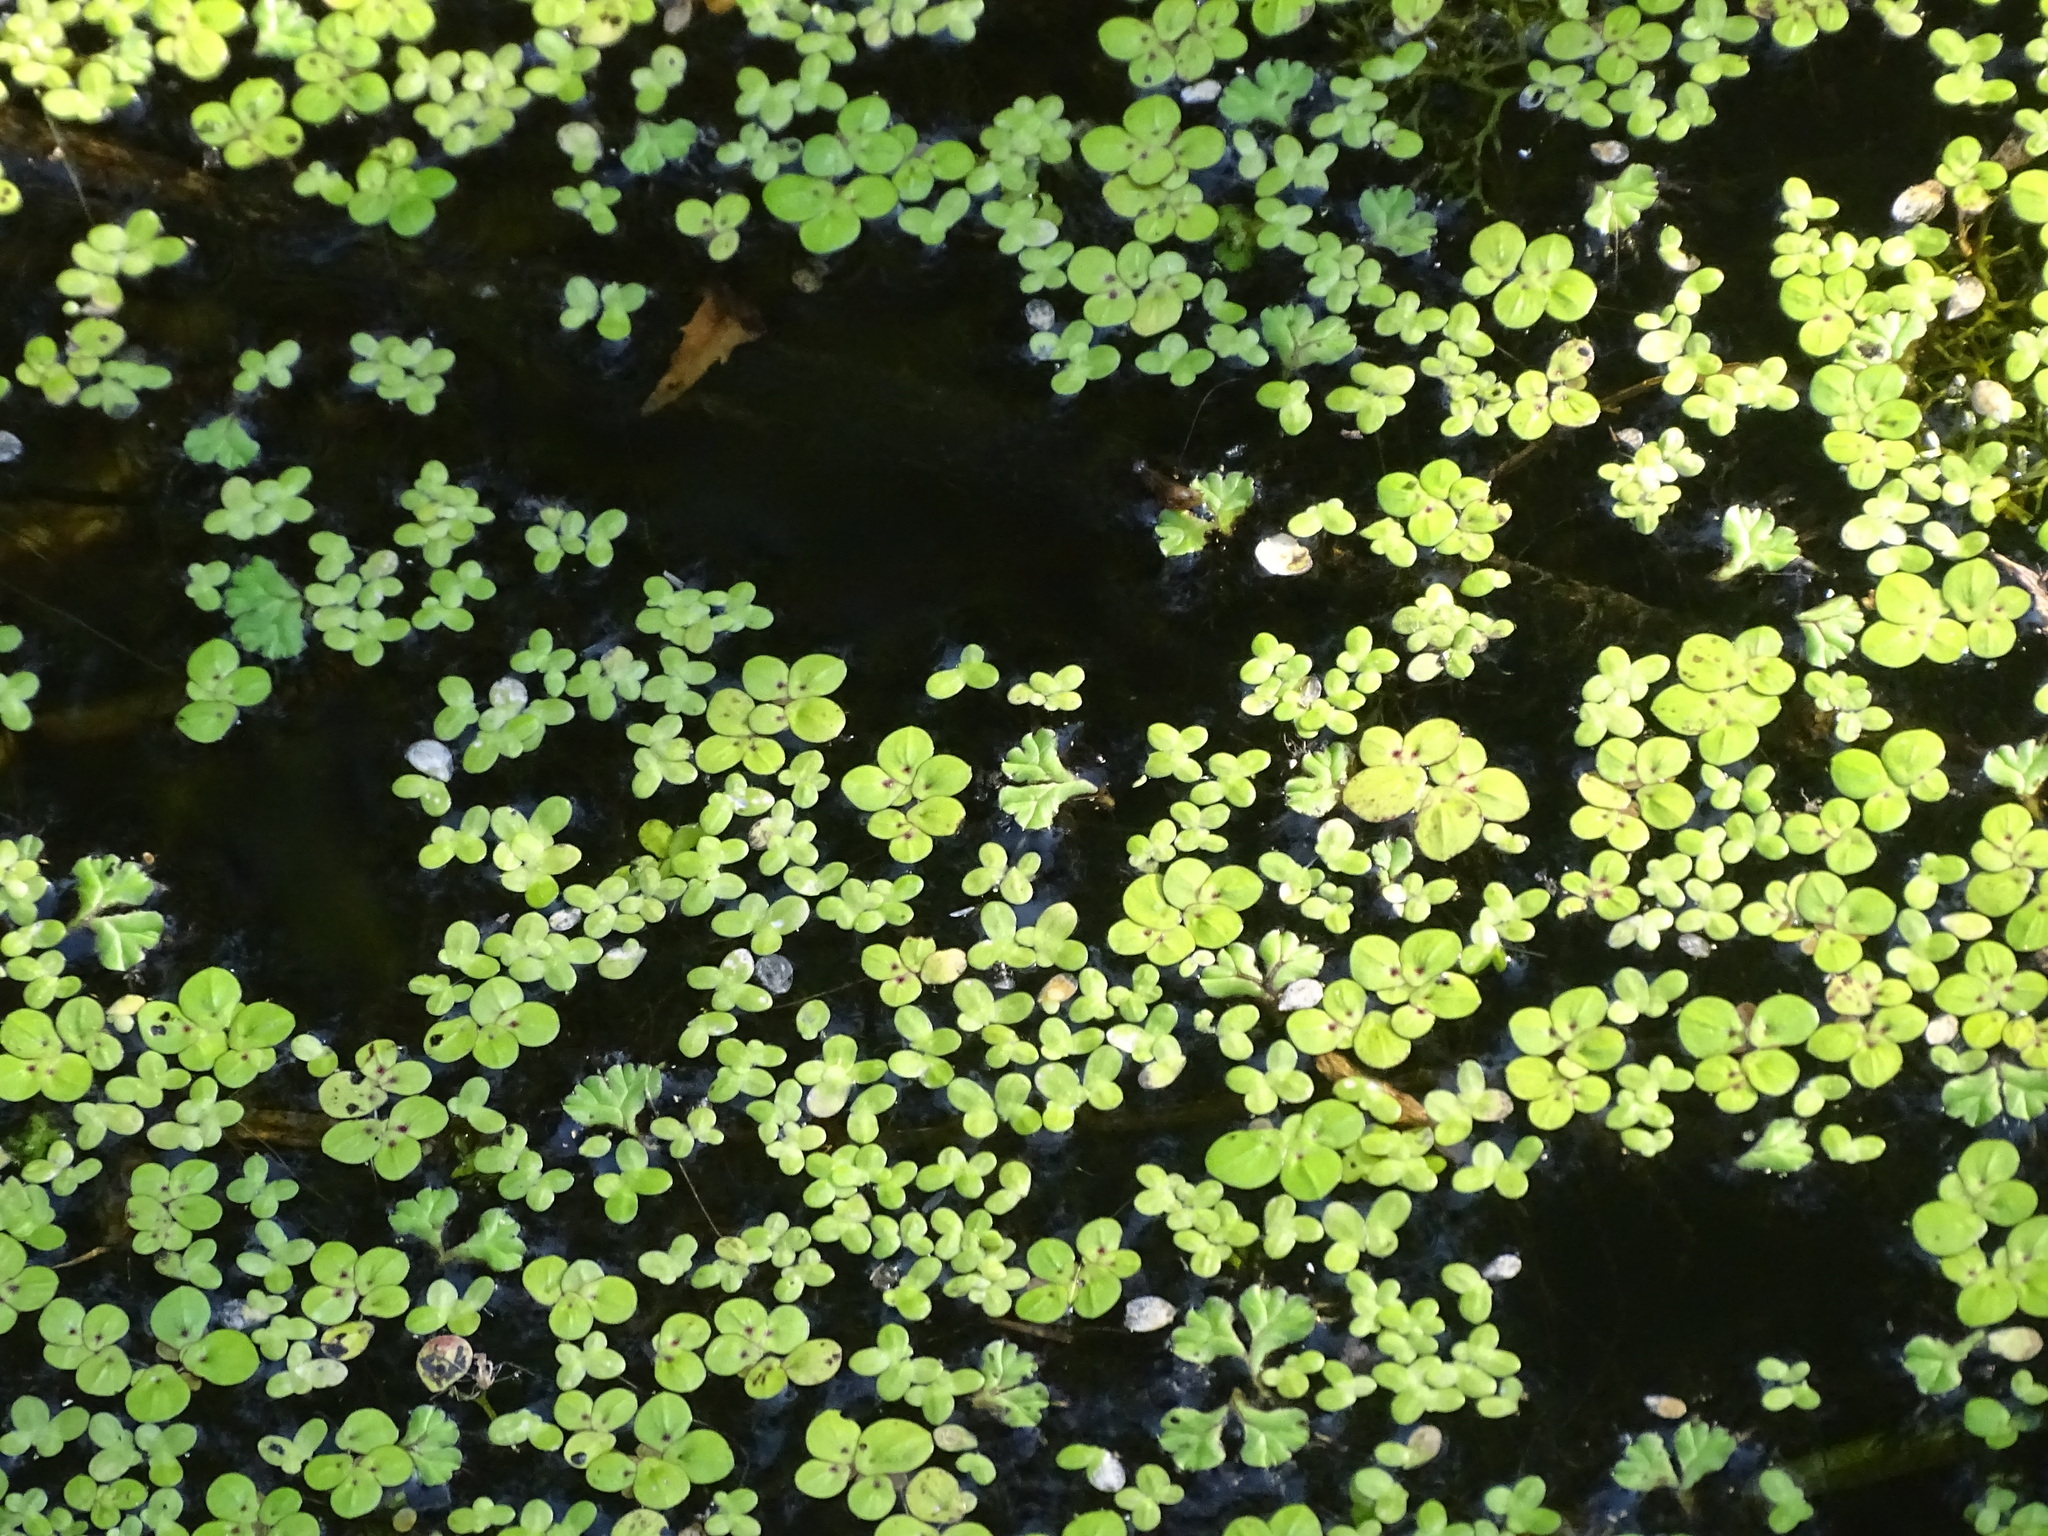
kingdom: Plantae
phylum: Tracheophyta
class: Liliopsida
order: Alismatales
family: Araceae
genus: Spirodela
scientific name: Spirodela polyrhiza
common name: Great duckweed
